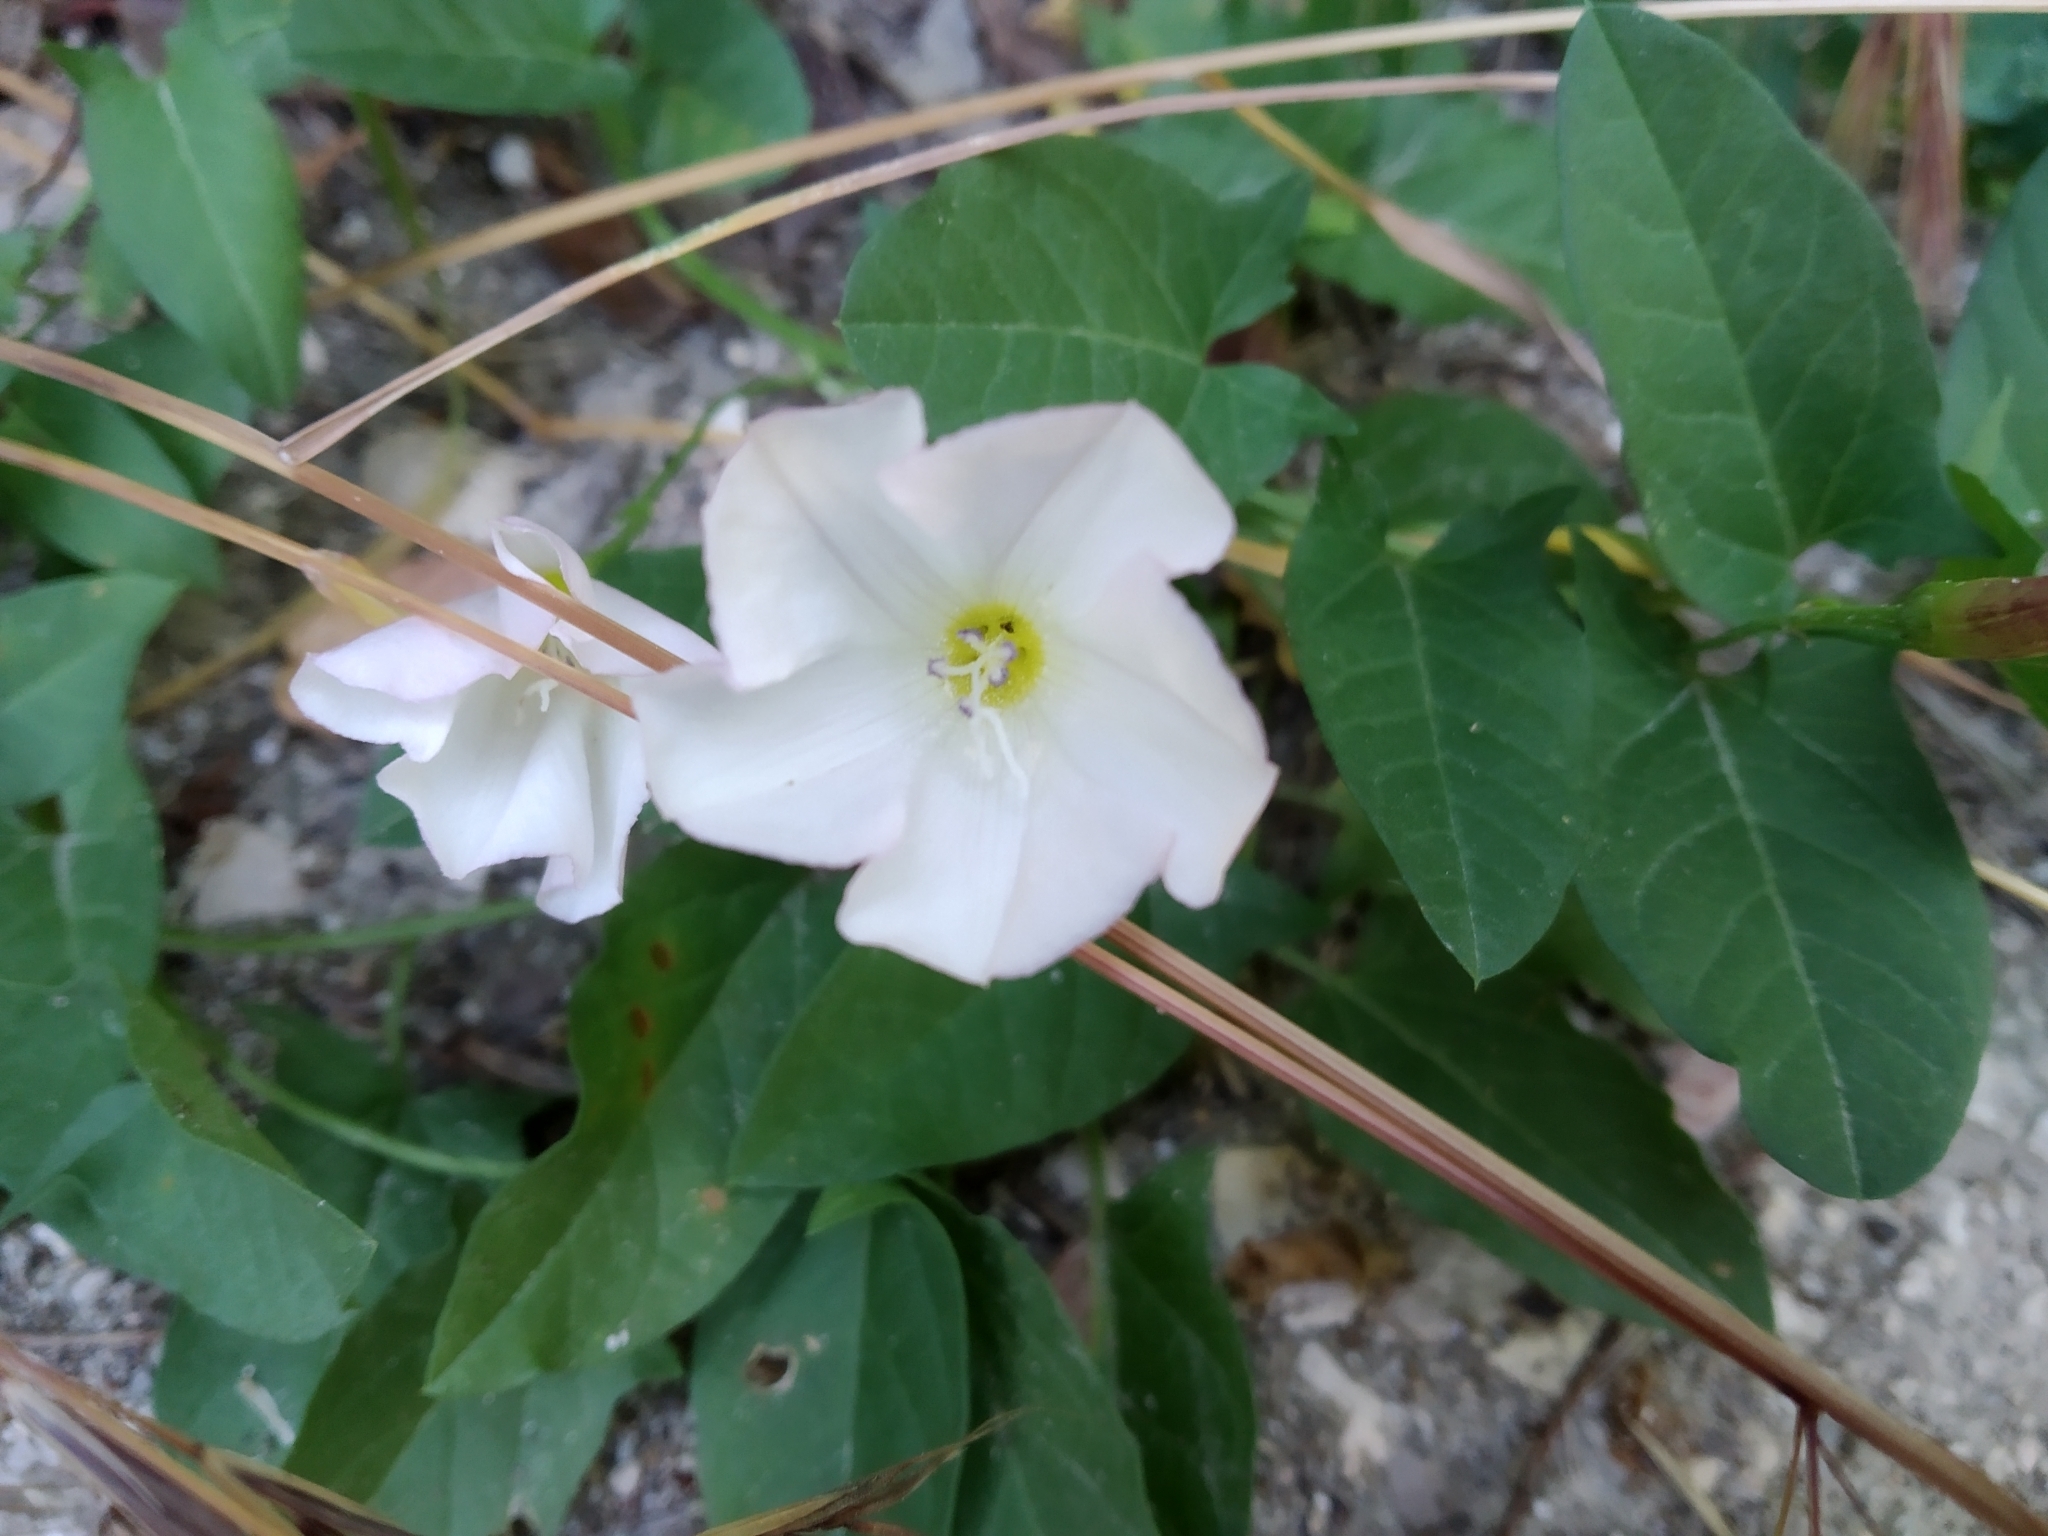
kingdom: Plantae
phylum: Tracheophyta
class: Magnoliopsida
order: Solanales
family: Convolvulaceae
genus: Convolvulus
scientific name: Convolvulus arvensis
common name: Field bindweed
